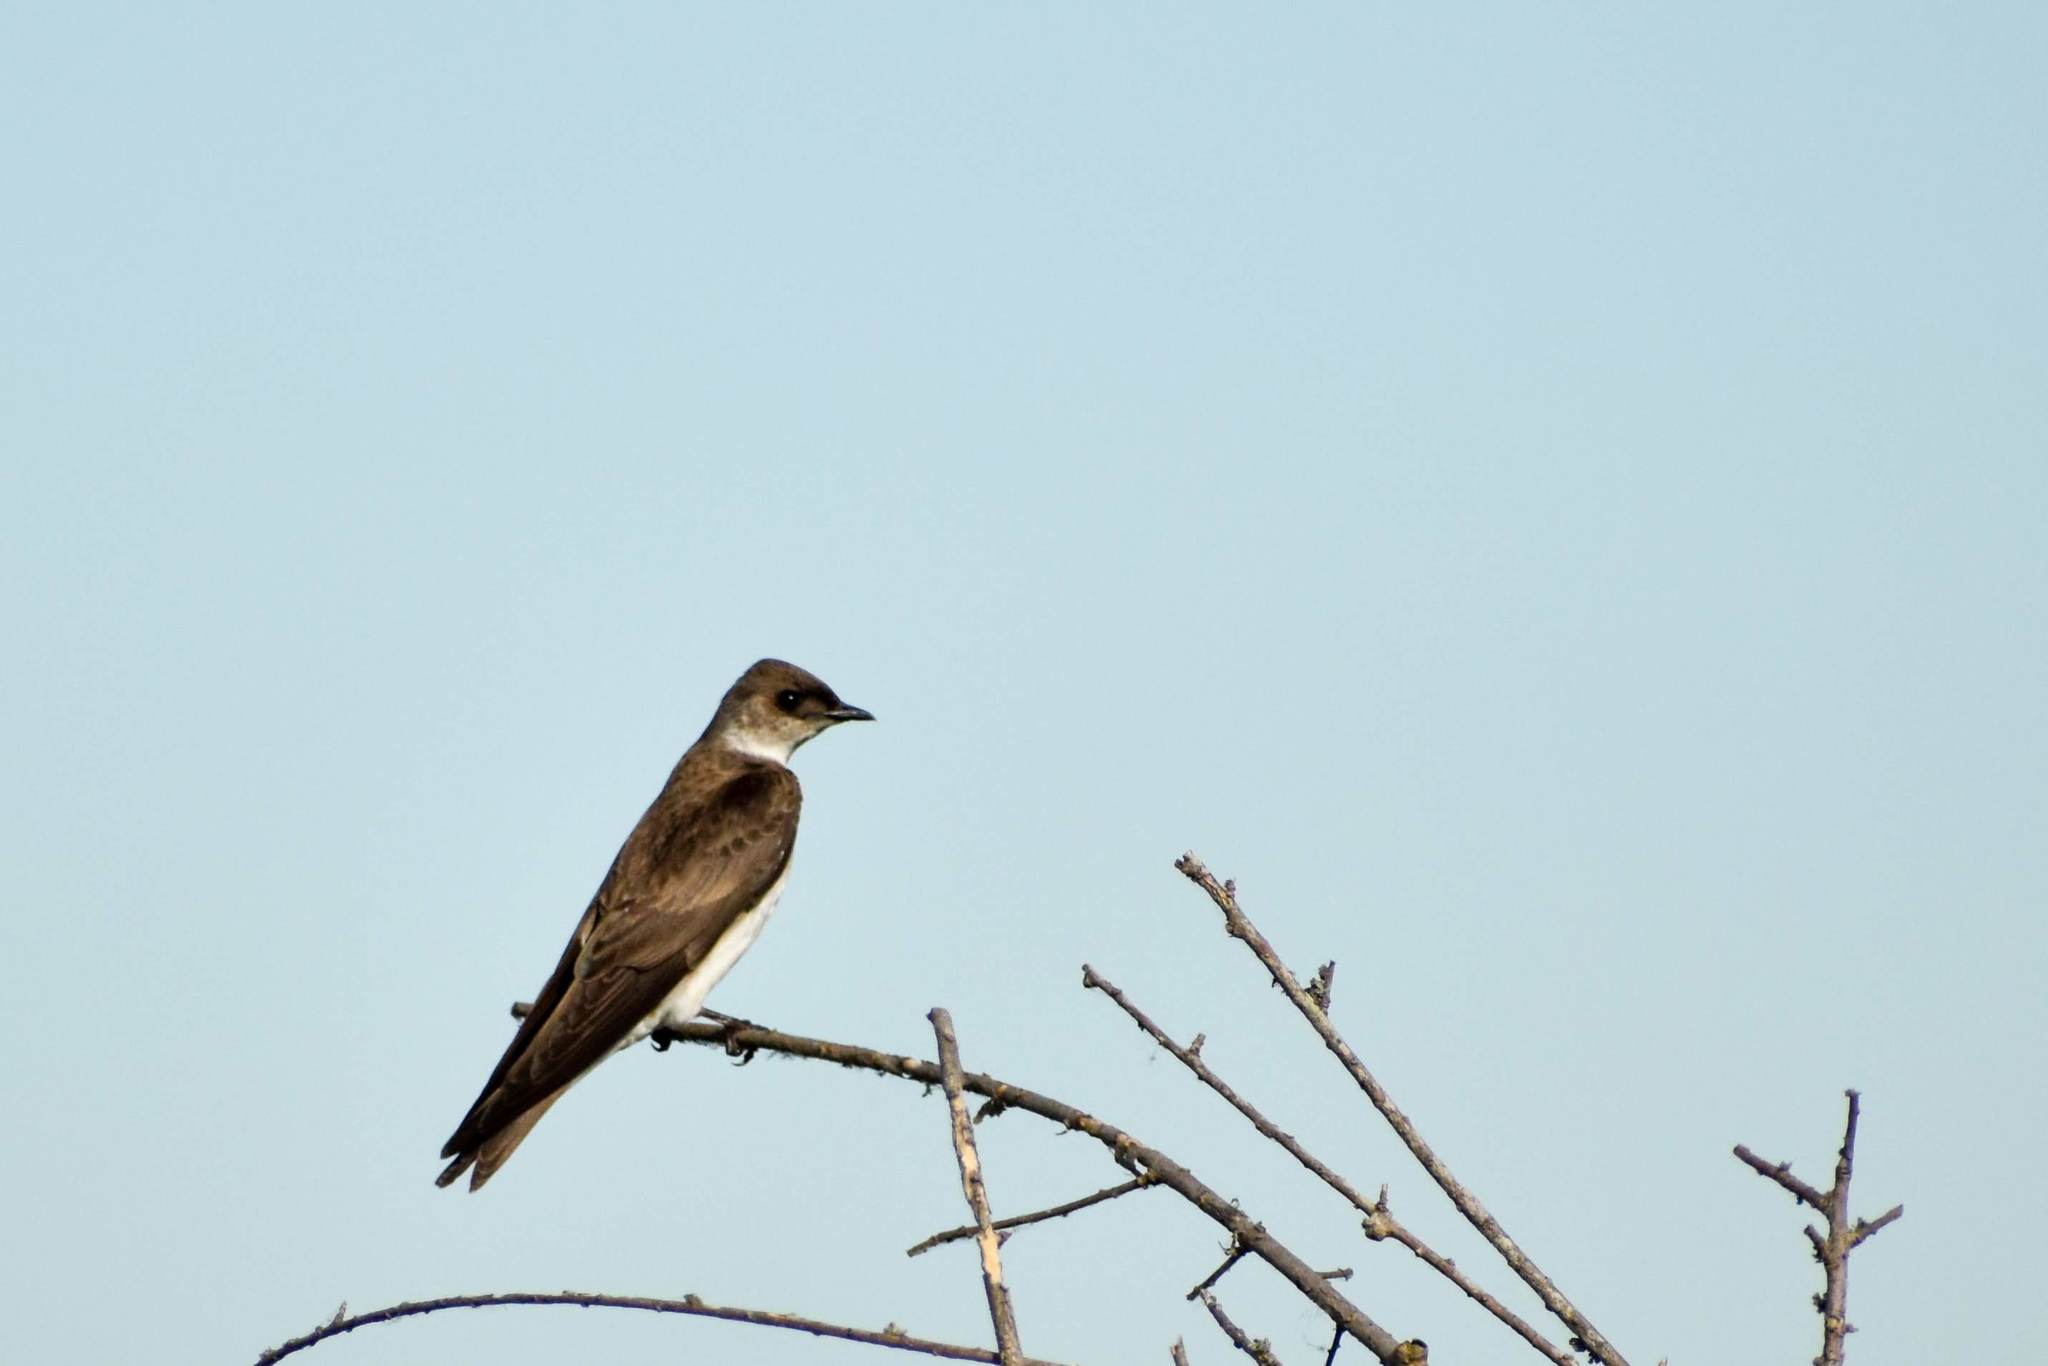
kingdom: Animalia
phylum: Chordata
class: Aves
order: Passeriformes
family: Hirundinidae
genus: Progne
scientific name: Progne tapera
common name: Brown-chested martin
